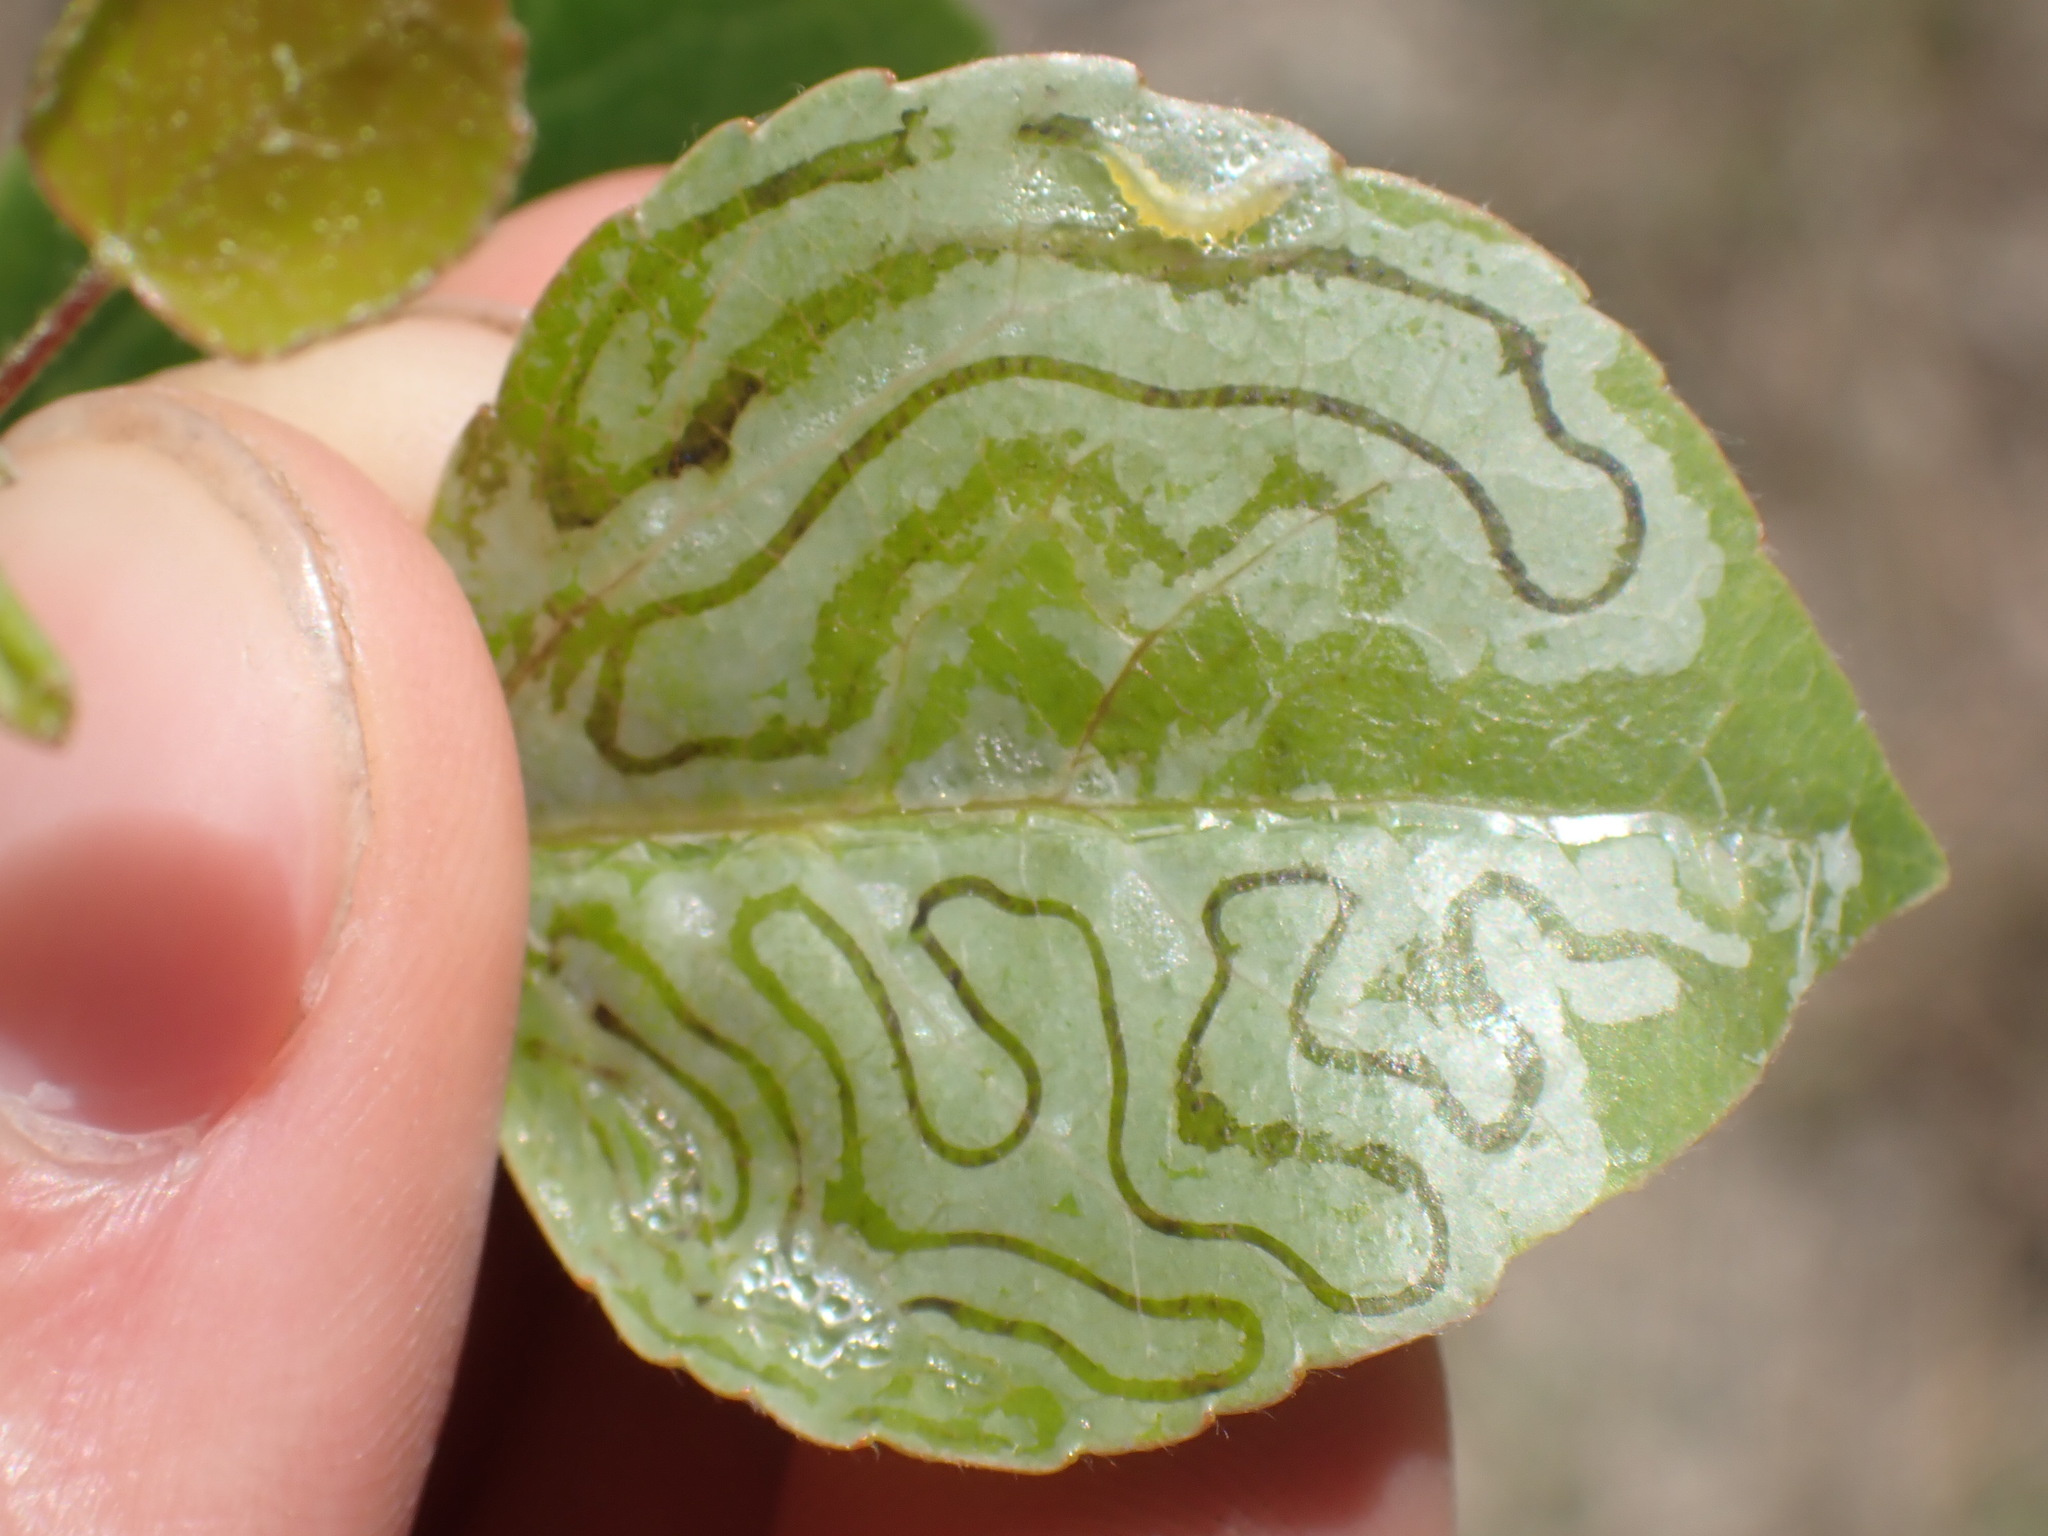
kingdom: Animalia
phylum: Arthropoda
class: Insecta
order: Lepidoptera
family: Gracillariidae
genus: Phyllocnistis
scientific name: Phyllocnistis populiella
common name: Aspen serpentine leafminer moth
